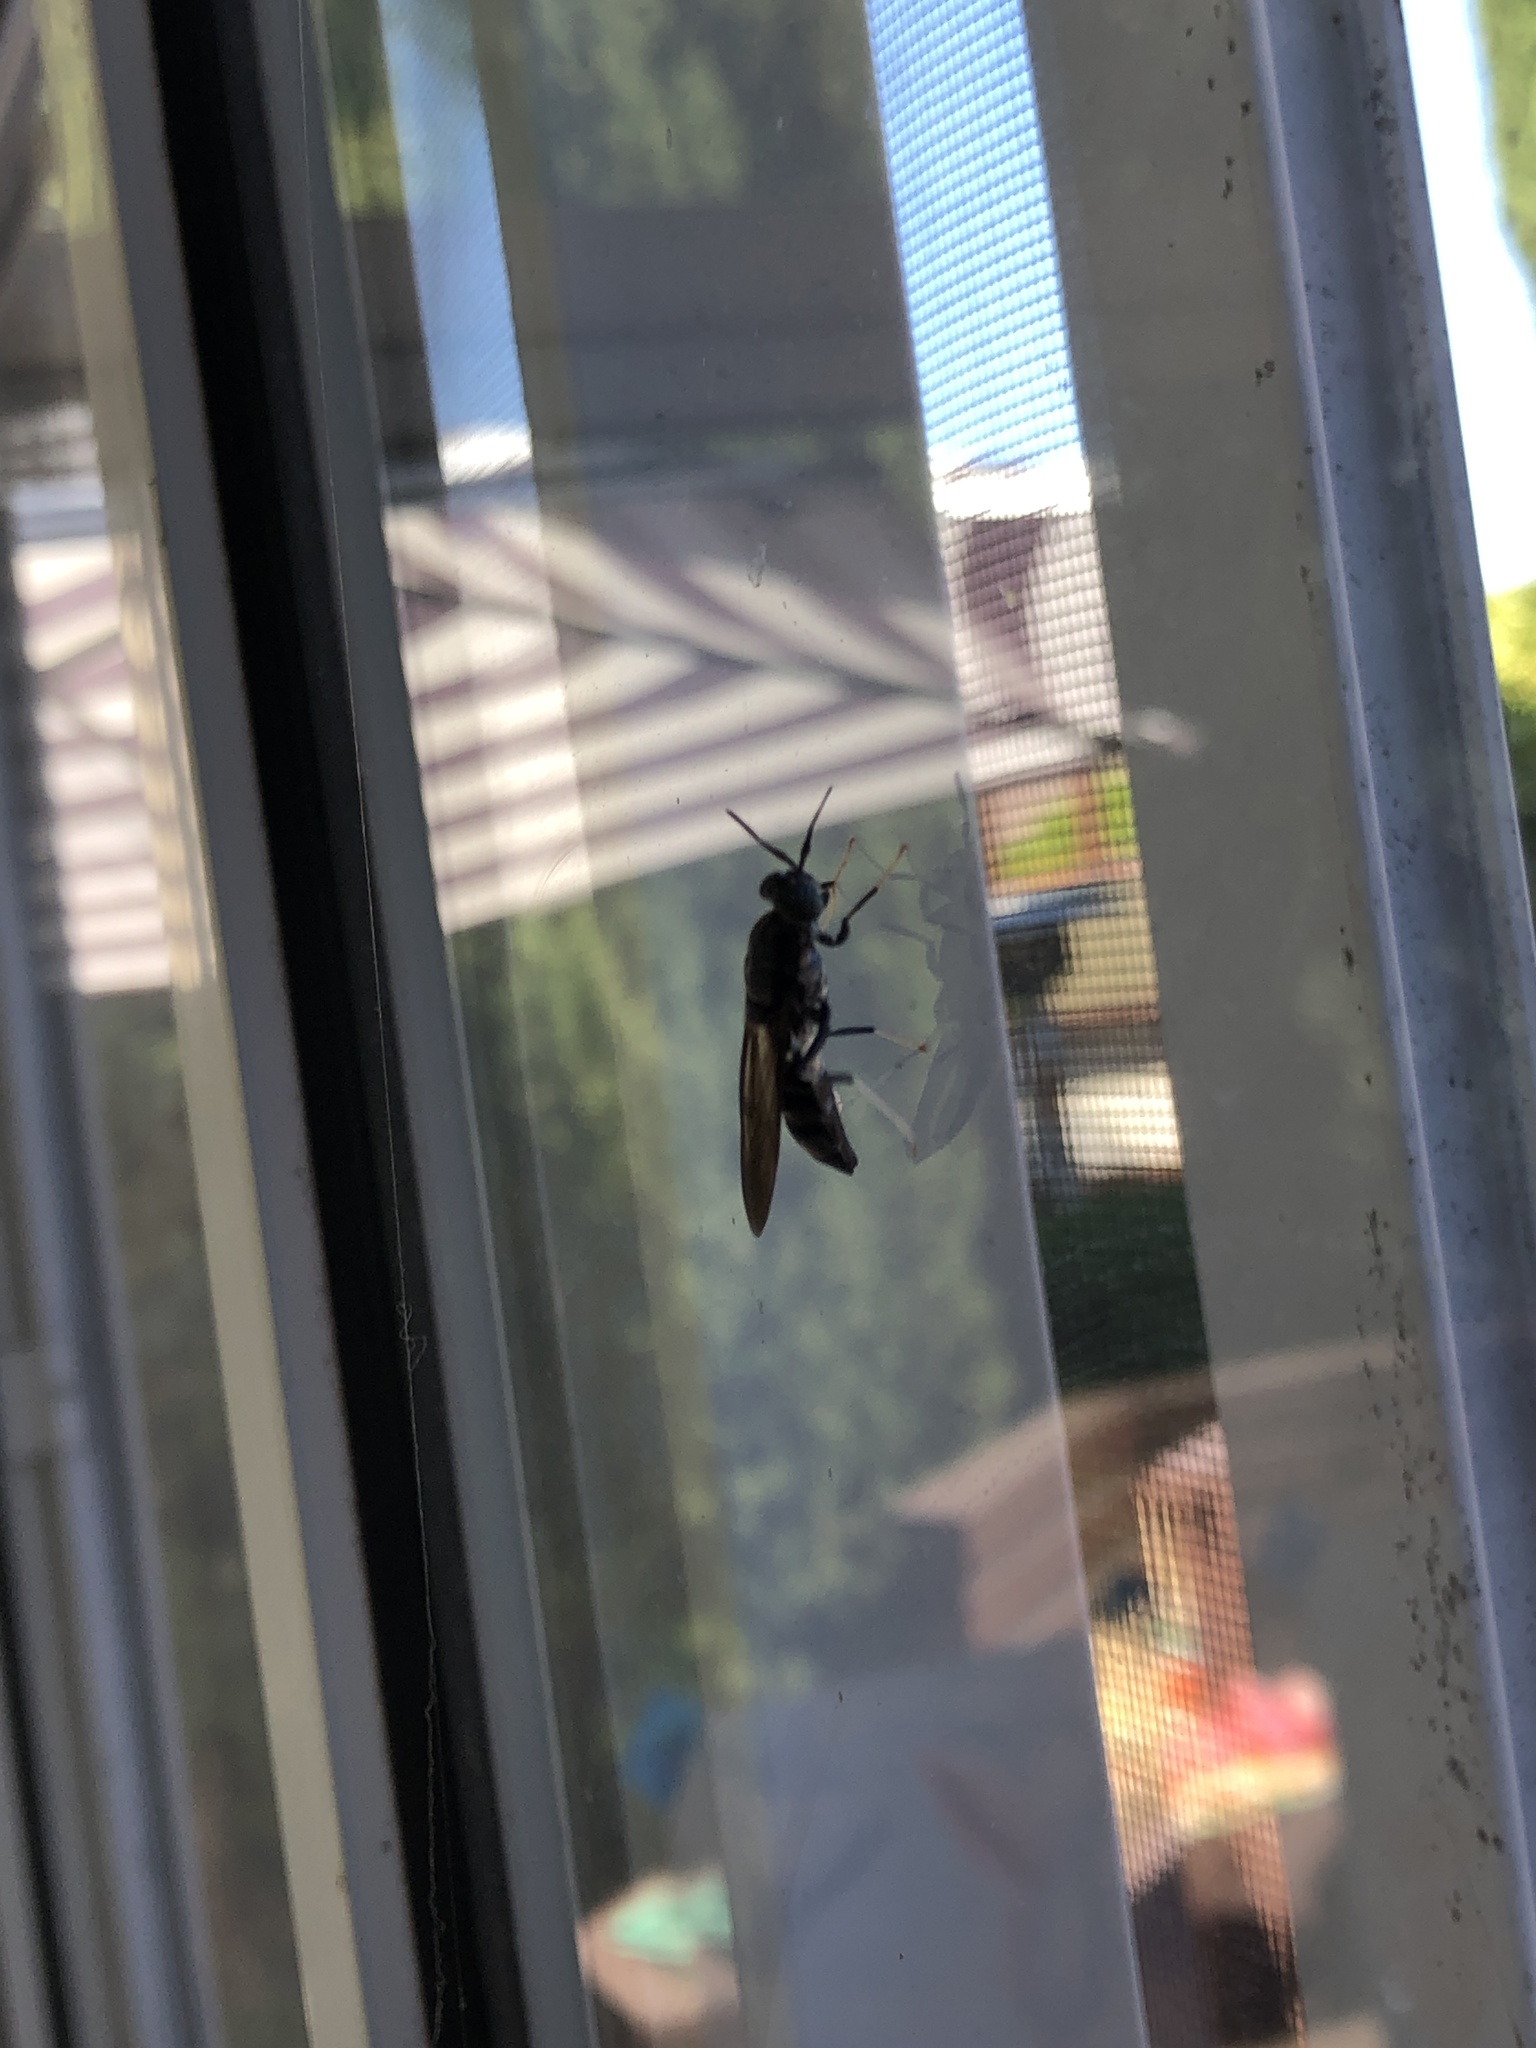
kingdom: Animalia
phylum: Arthropoda
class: Insecta
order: Diptera
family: Stratiomyidae
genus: Hermetia
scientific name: Hermetia illucens
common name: Black soldier fly
